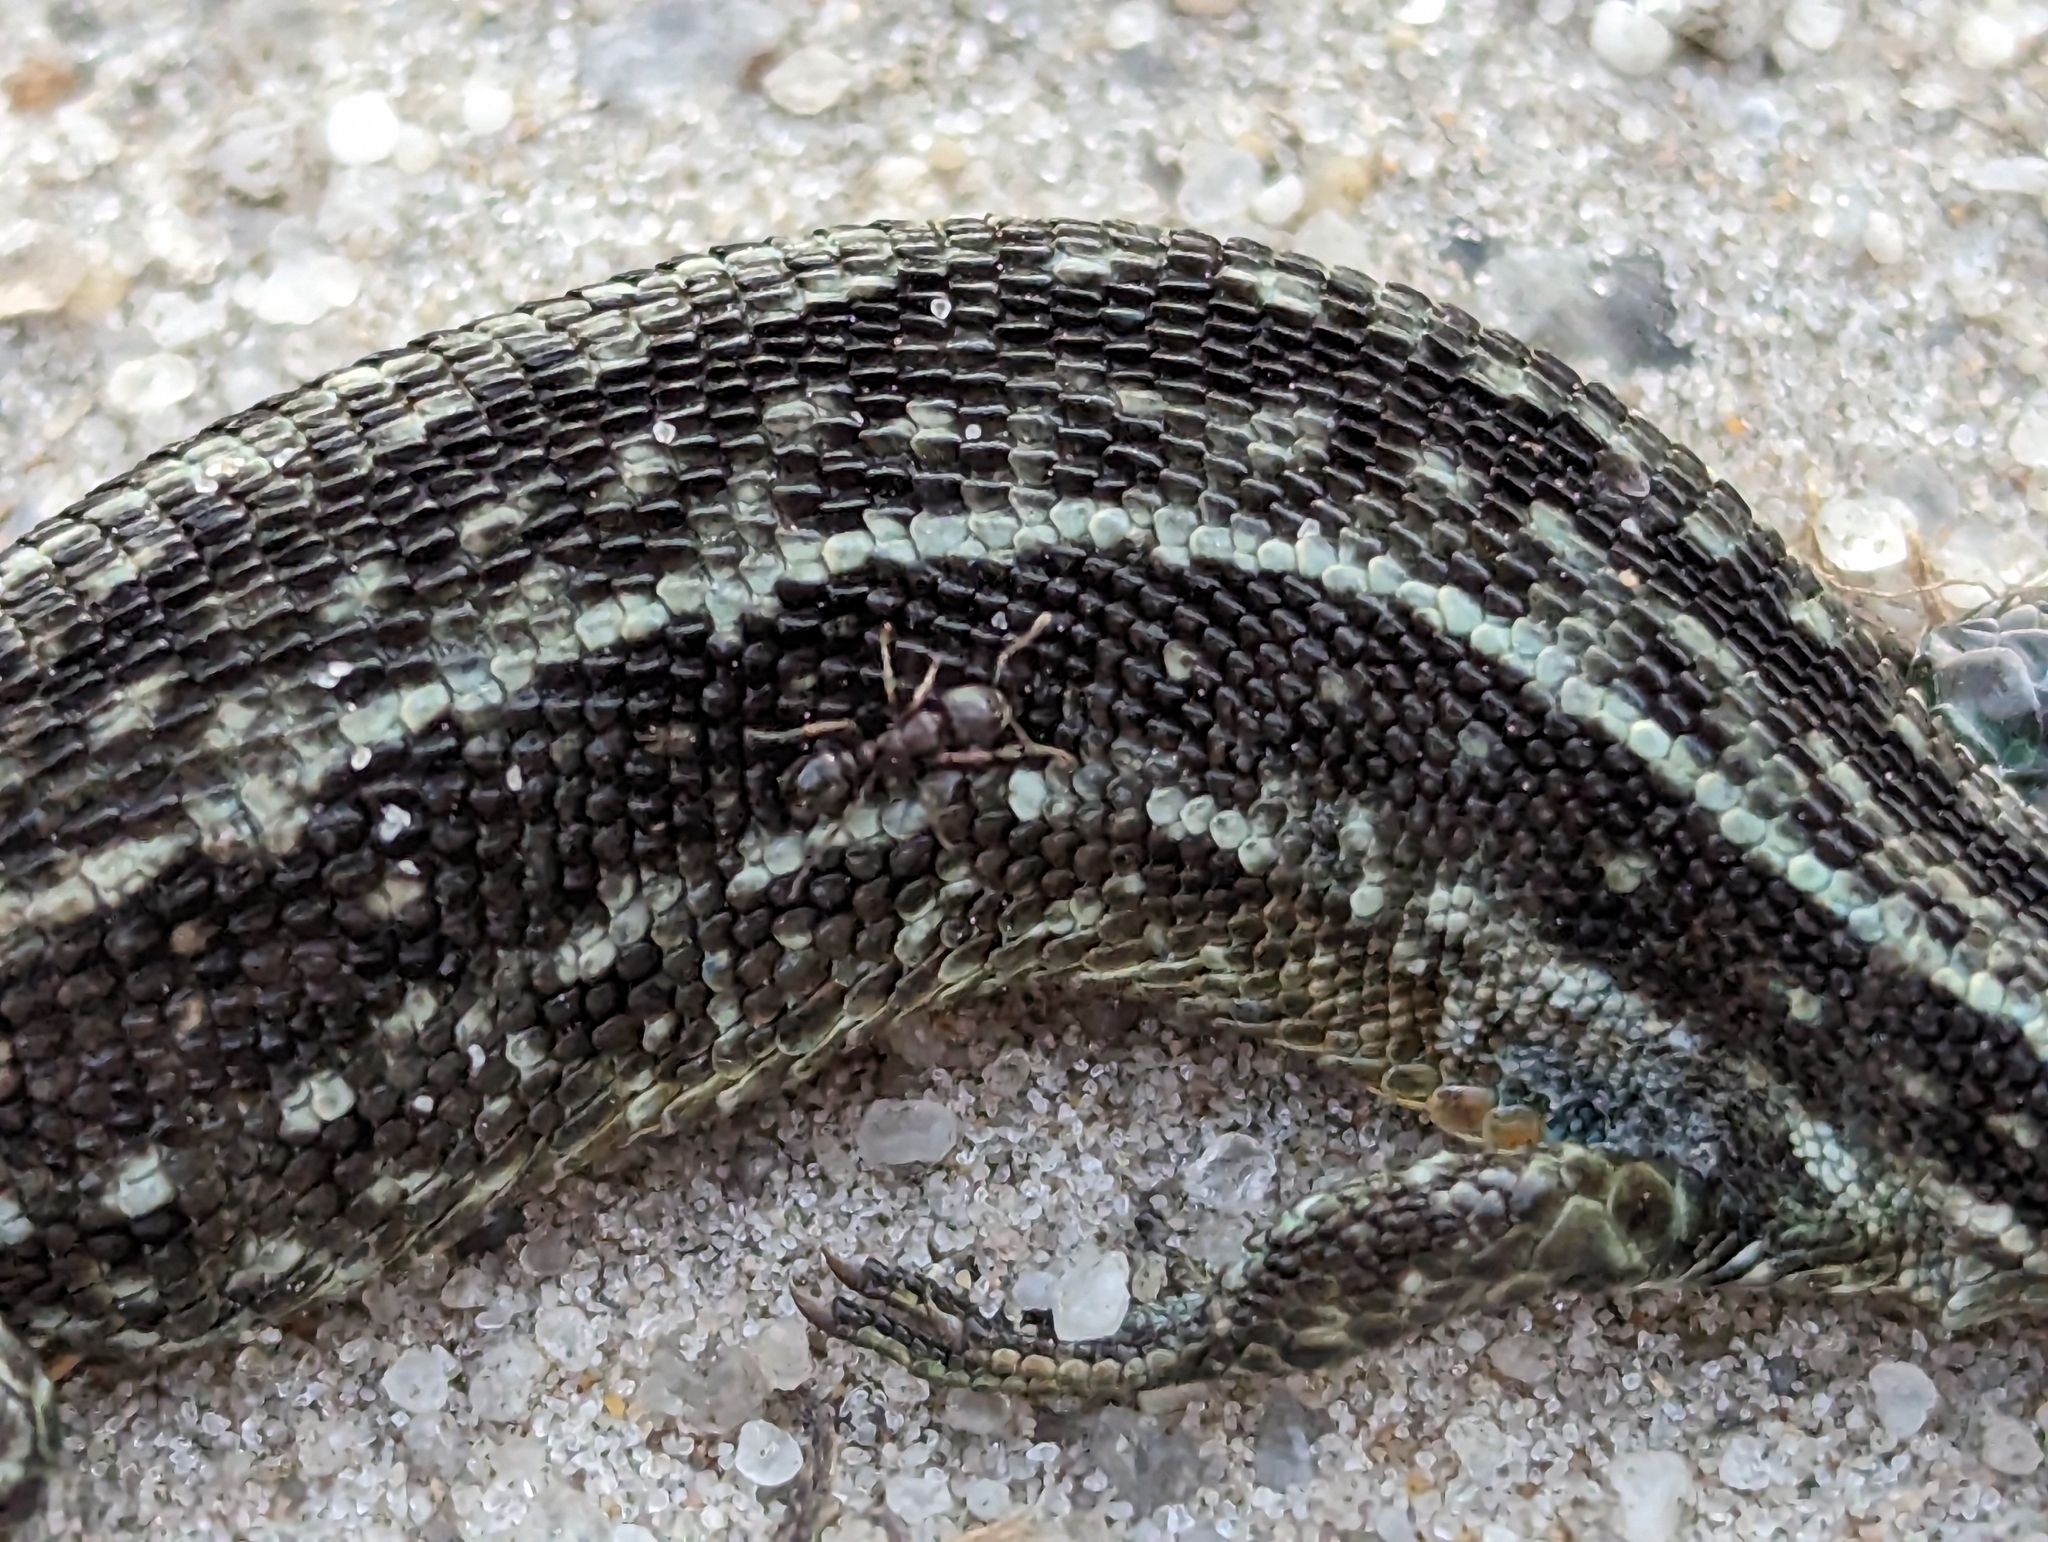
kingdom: Animalia
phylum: Chordata
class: Squamata
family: Lacertidae
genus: Zootoca
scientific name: Zootoca vivipara
